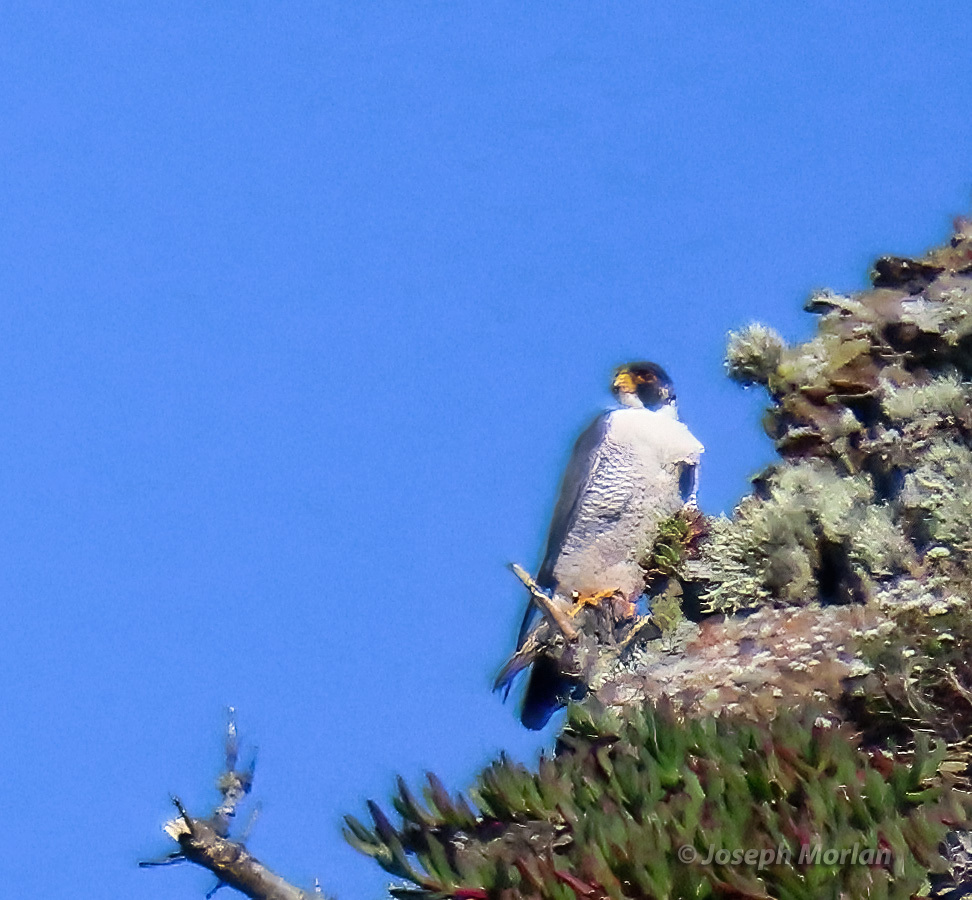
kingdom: Animalia
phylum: Chordata
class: Aves
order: Falconiformes
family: Falconidae
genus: Falco
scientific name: Falco peregrinus
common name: Peregrine falcon
